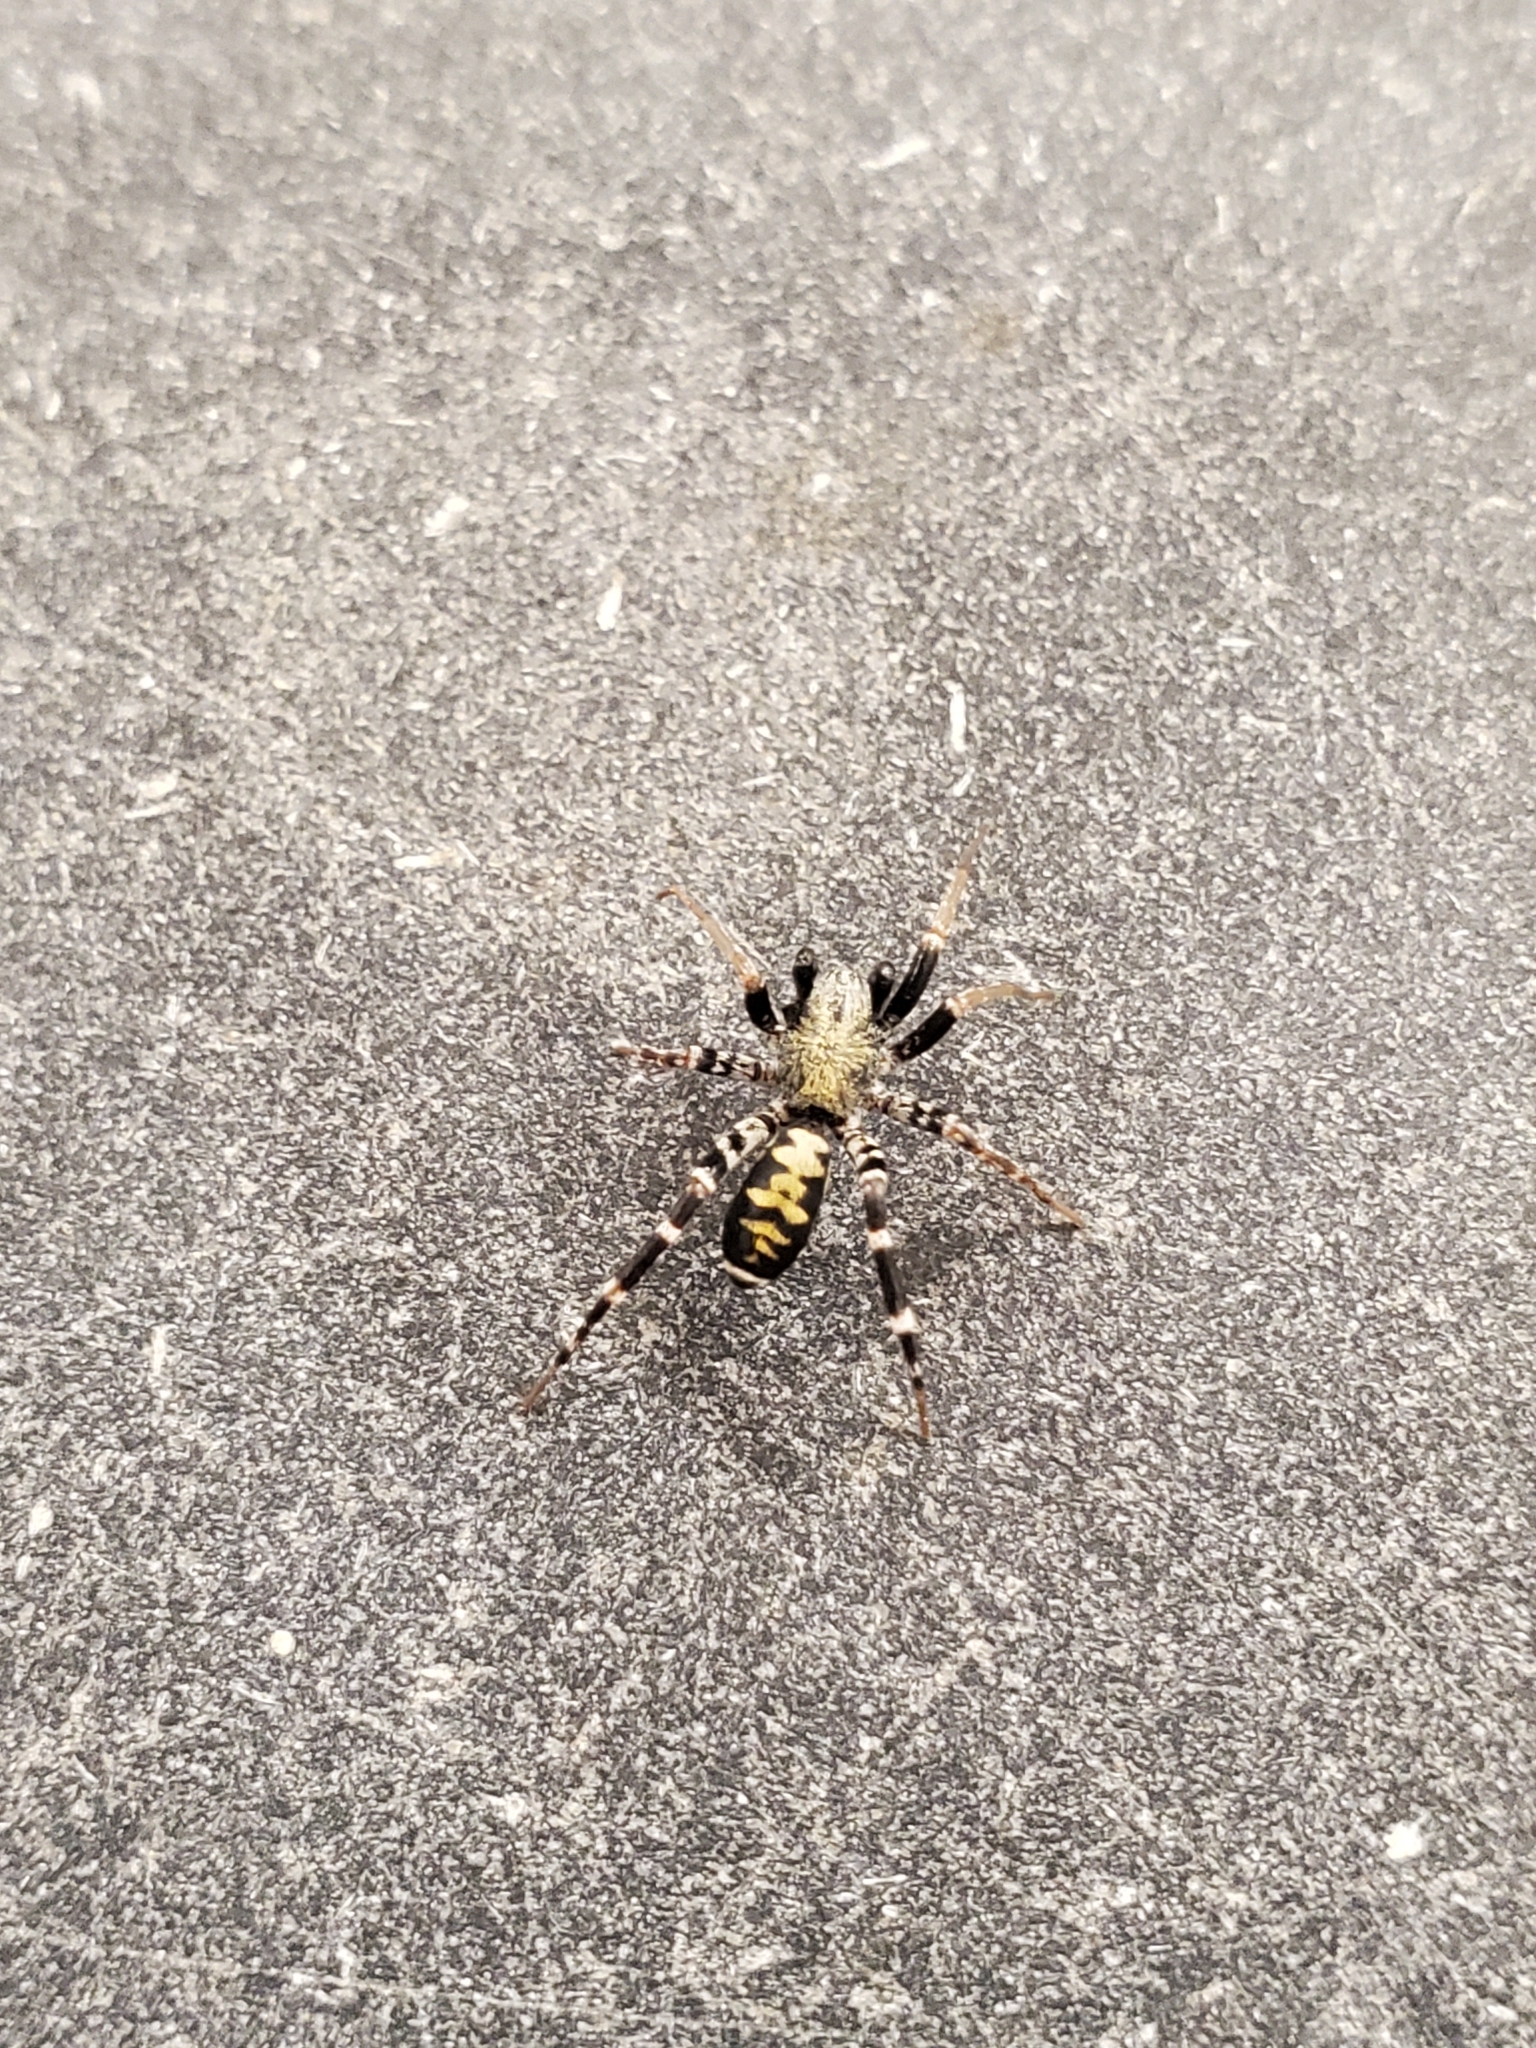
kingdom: Animalia
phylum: Arthropoda
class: Arachnida
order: Araneae
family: Corinnidae
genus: Castianeira
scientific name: Castianeira longipalpa
